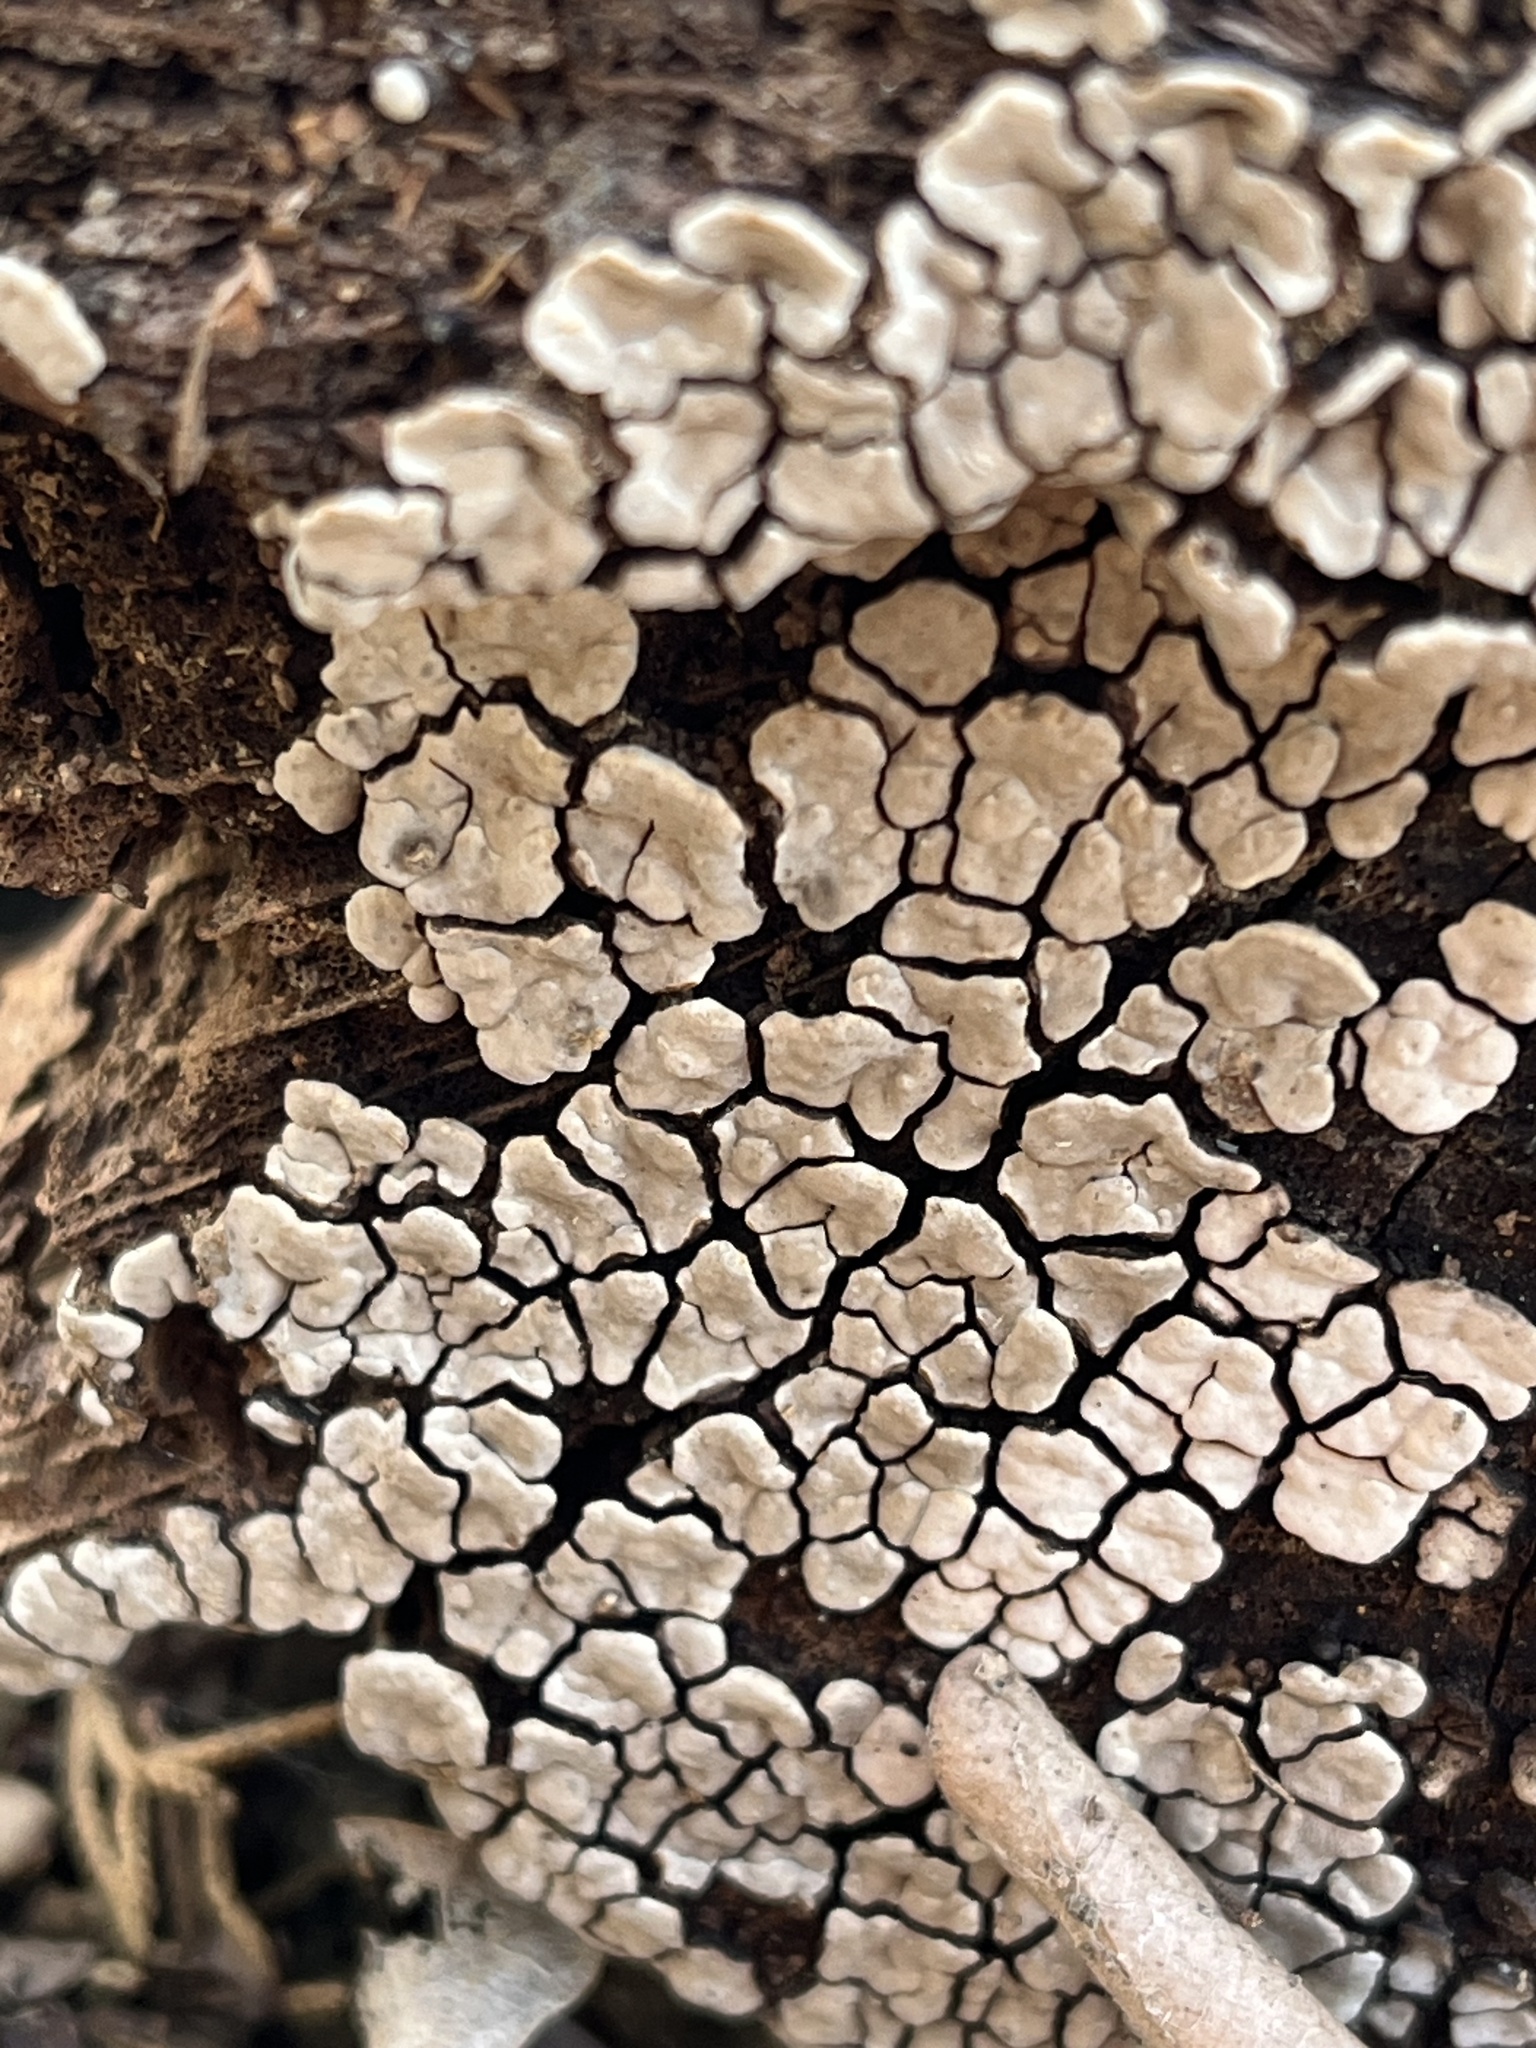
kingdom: Fungi
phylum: Basidiomycota
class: Agaricomycetes
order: Russulales
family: Stereaceae
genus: Xylobolus
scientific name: Xylobolus frustulatus
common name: Ceramic parchment
